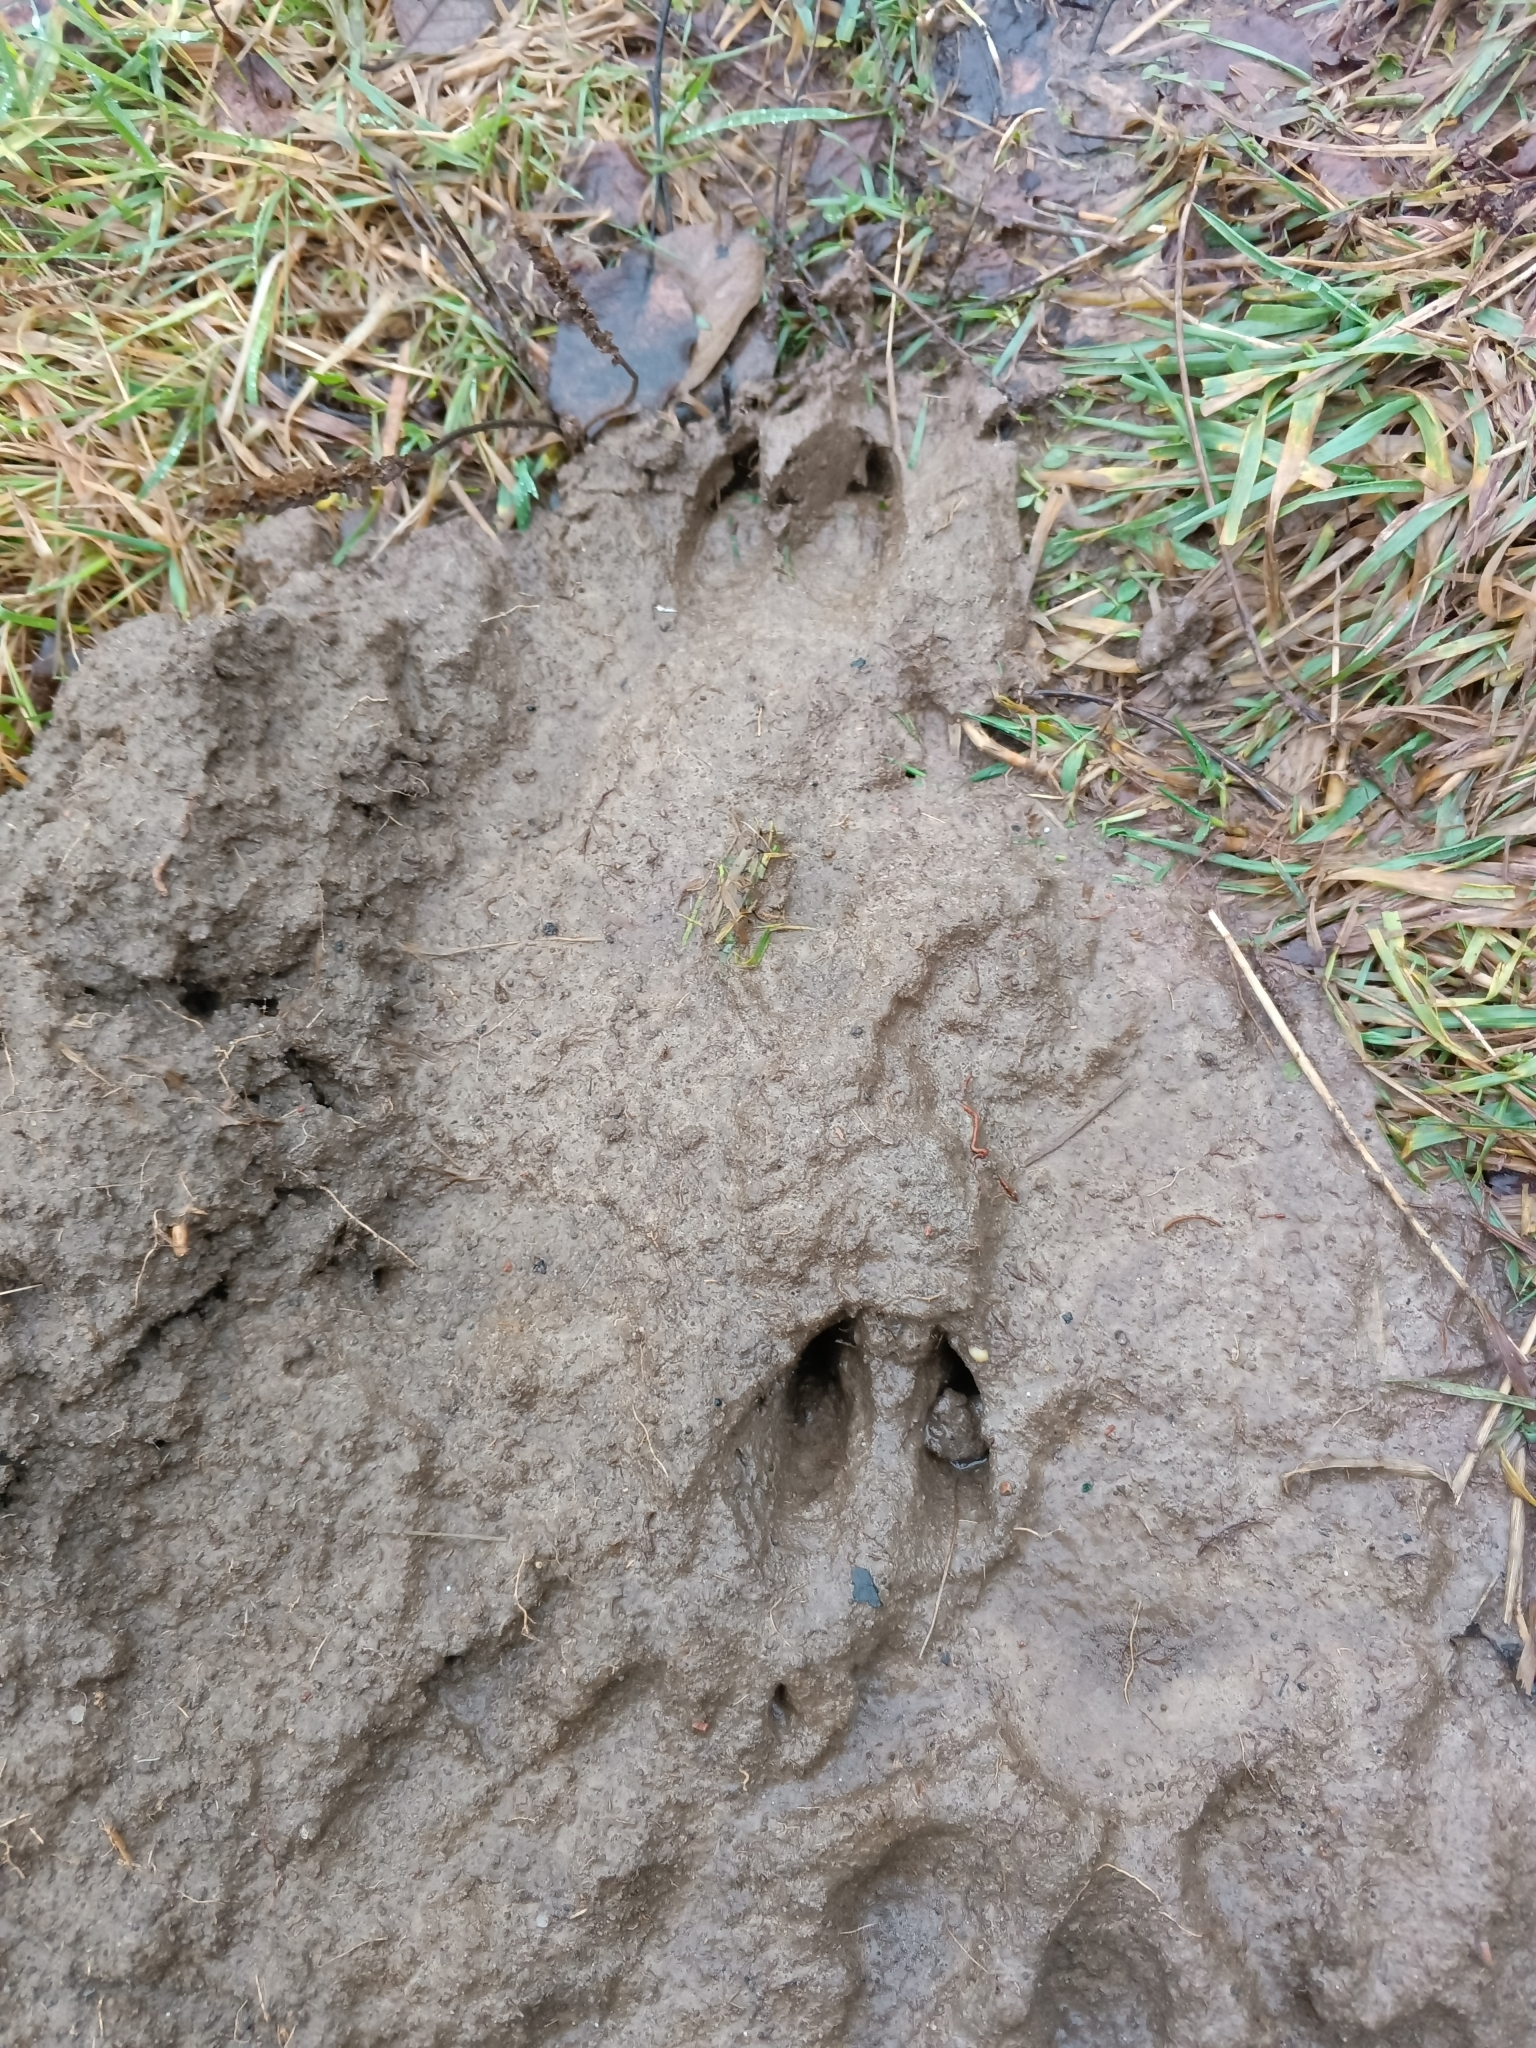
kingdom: Animalia
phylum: Chordata
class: Mammalia
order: Artiodactyla
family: Cervidae
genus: Capreolus
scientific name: Capreolus capreolus
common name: Western roe deer
